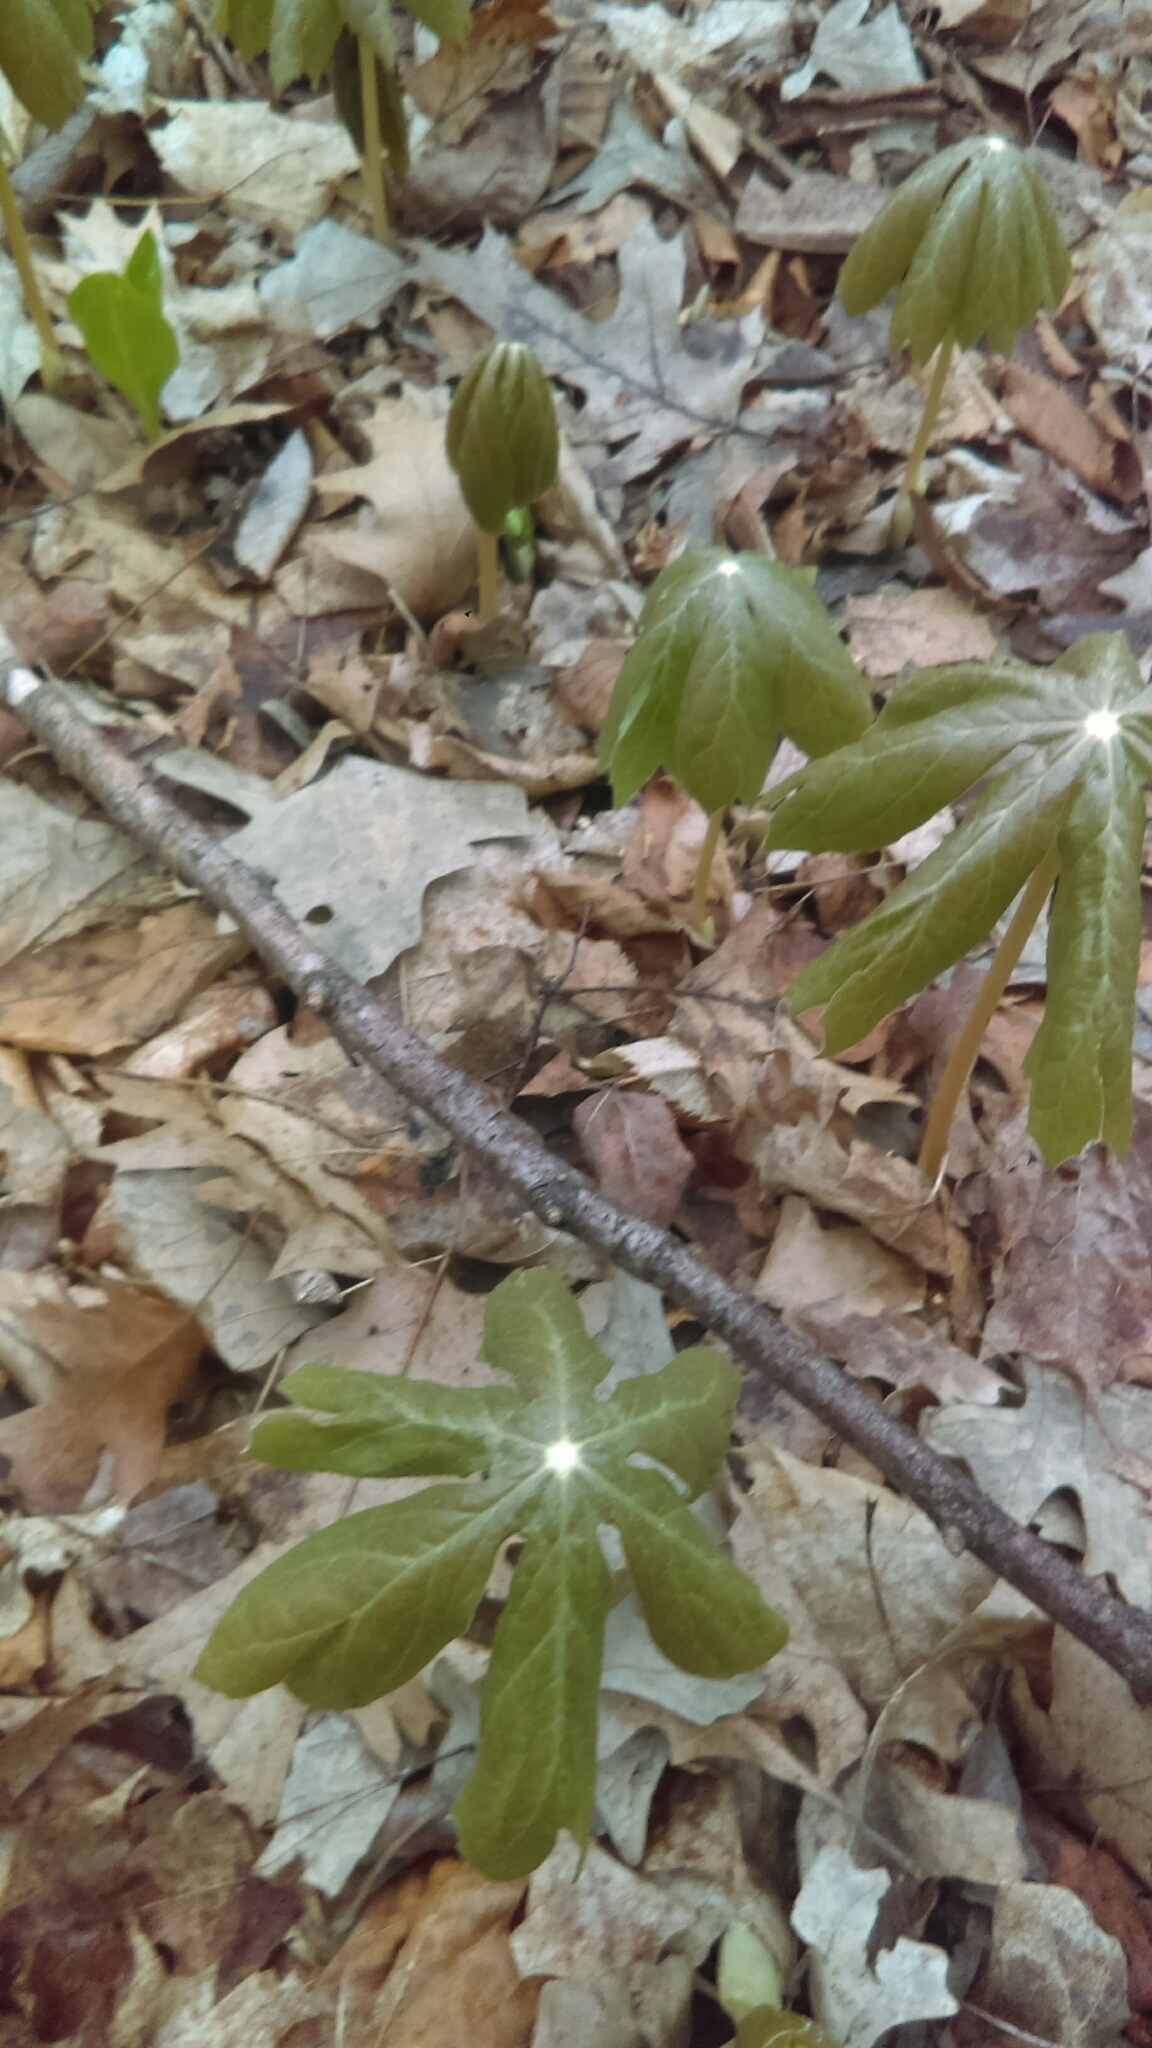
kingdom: Plantae
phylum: Tracheophyta
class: Magnoliopsida
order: Ranunculales
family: Berberidaceae
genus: Podophyllum
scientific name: Podophyllum peltatum
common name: Wild mandrake
